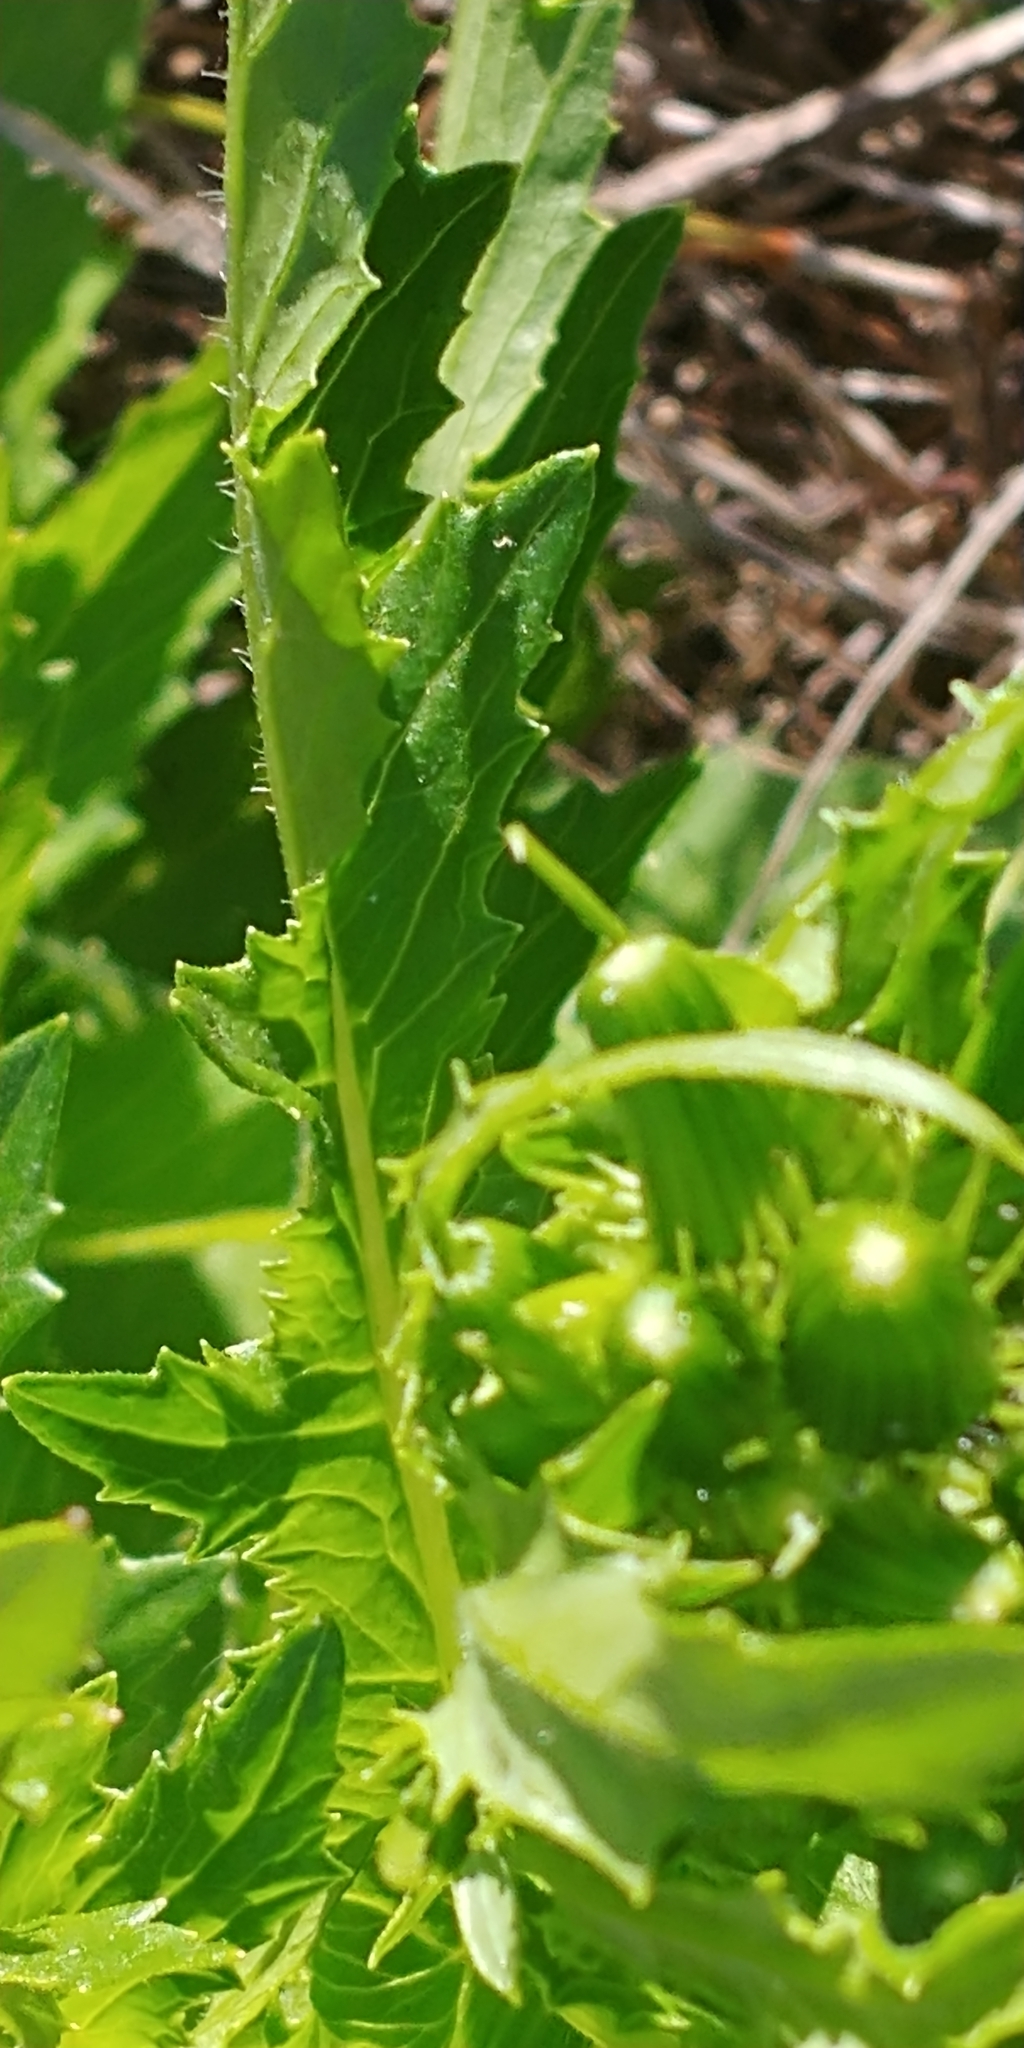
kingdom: Plantae
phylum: Tracheophyta
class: Magnoliopsida
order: Asterales
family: Asteraceae
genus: Erechtites
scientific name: Erechtites hieraciifolius
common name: American burnweed
